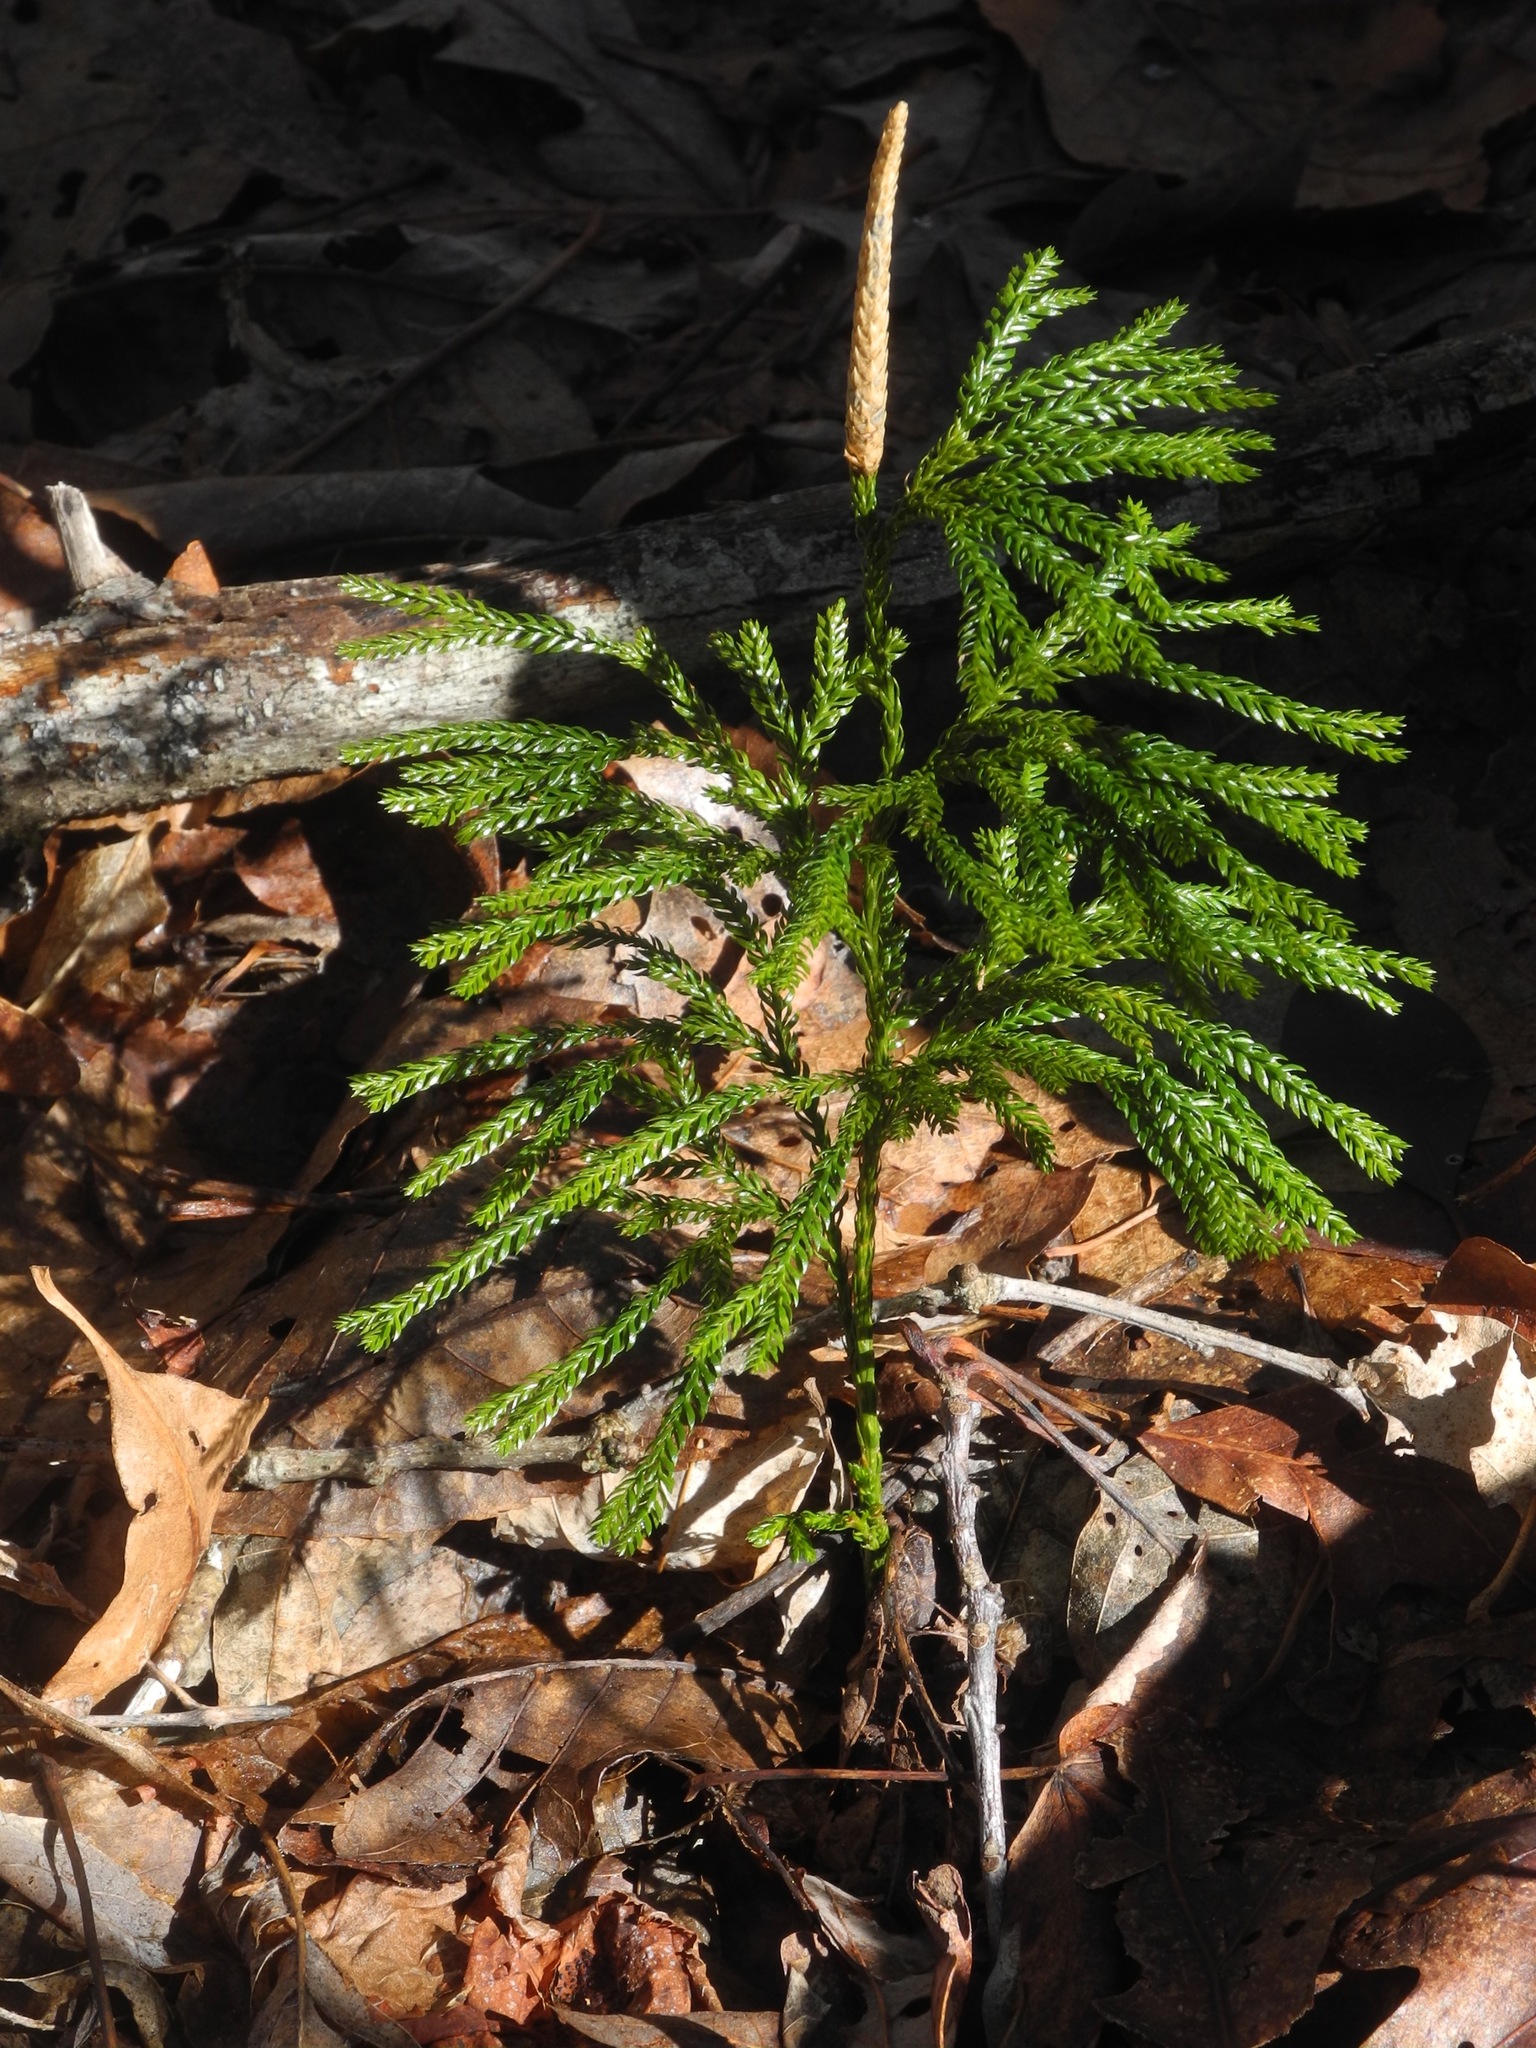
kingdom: Plantae
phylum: Tracheophyta
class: Lycopodiopsida
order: Lycopodiales
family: Lycopodiaceae
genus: Dendrolycopodium
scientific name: Dendrolycopodium obscurum
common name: Common ground-pine
